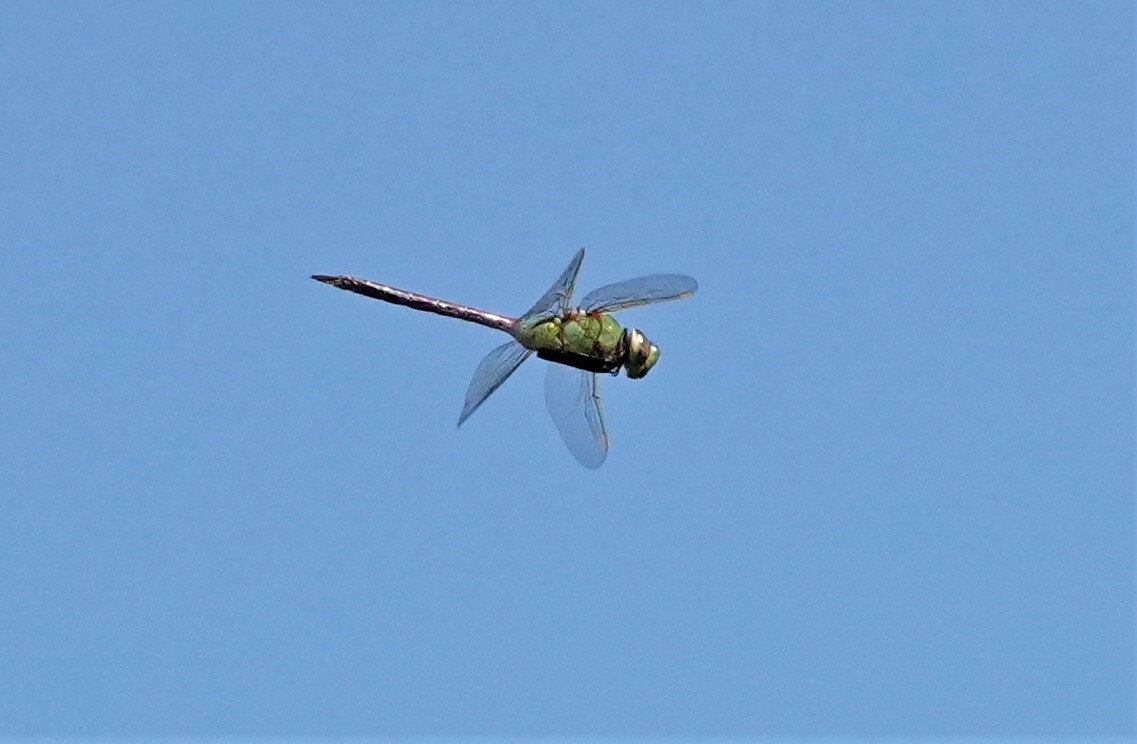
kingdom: Animalia
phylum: Arthropoda
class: Insecta
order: Odonata
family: Aeshnidae
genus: Anax
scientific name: Anax junius
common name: Common green darner
